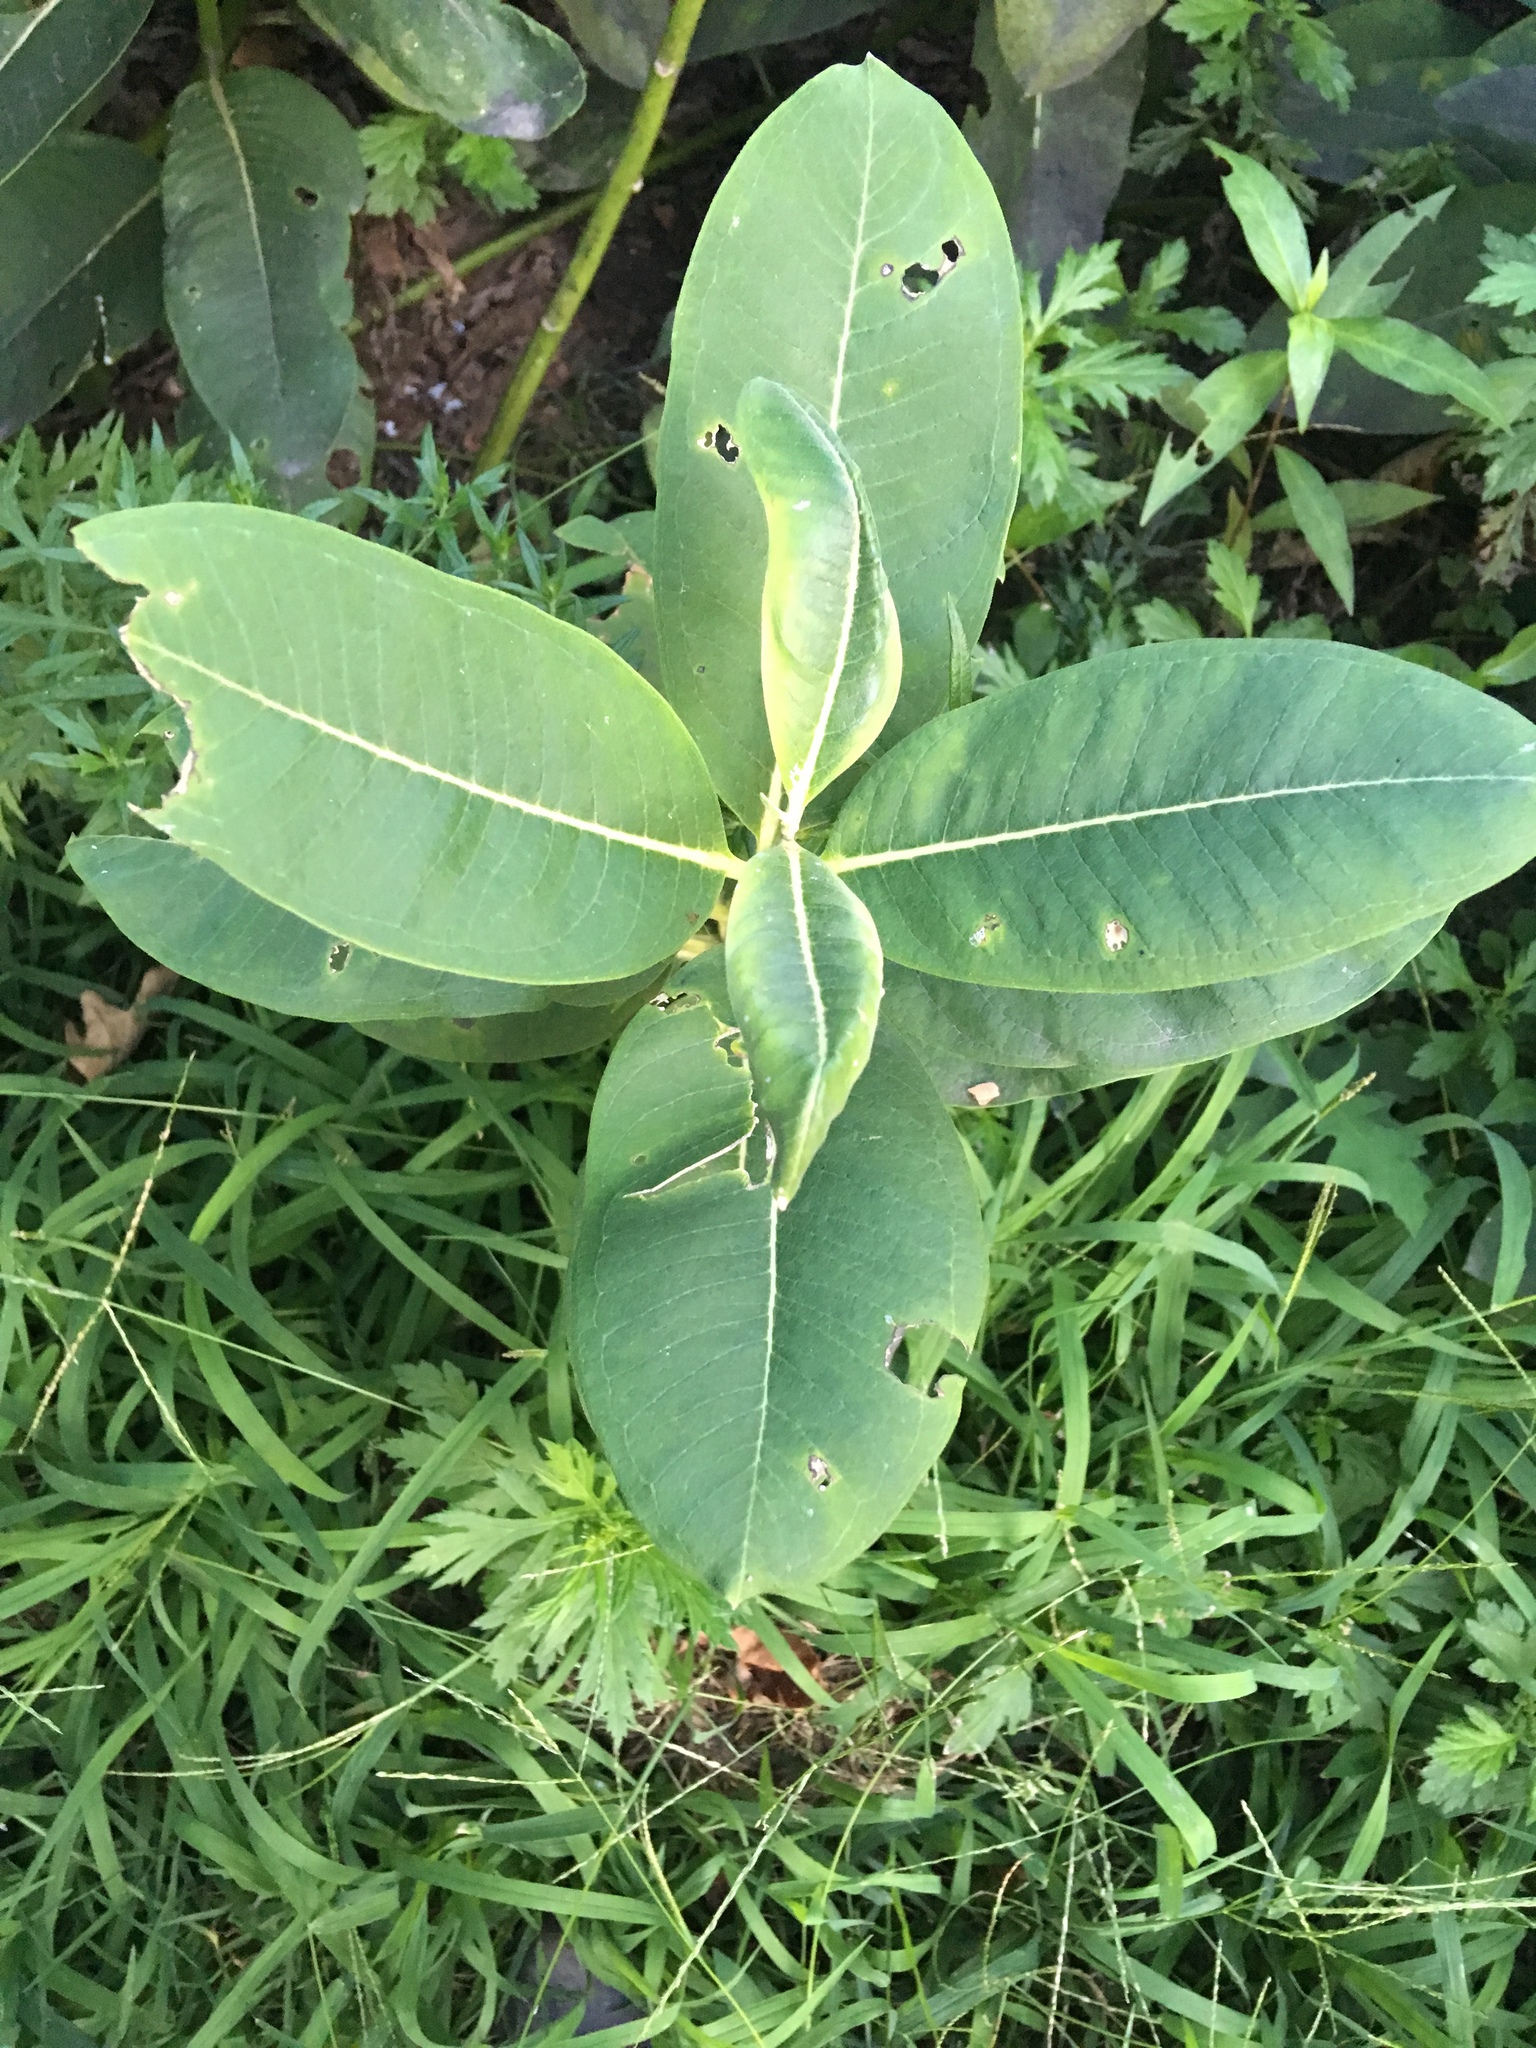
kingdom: Plantae
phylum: Tracheophyta
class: Magnoliopsida
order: Gentianales
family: Apocynaceae
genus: Asclepias
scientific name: Asclepias syriaca
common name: Common milkweed
